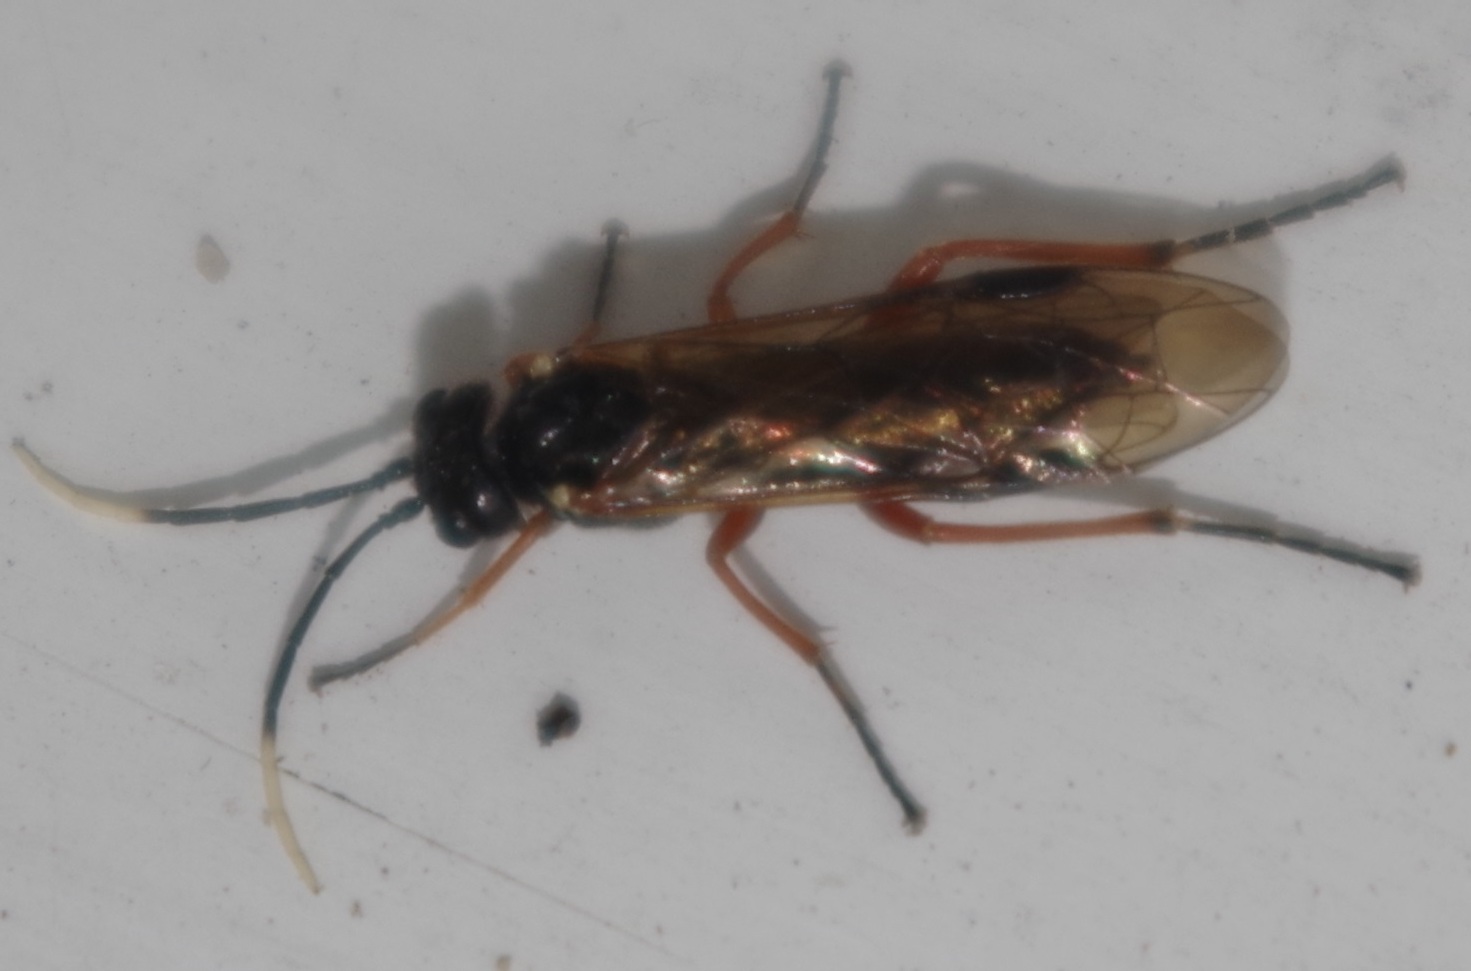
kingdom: Animalia
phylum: Arthropoda
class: Insecta
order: Hymenoptera
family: Tenthredinidae
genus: Apethymus
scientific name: Apethymus apicalis
